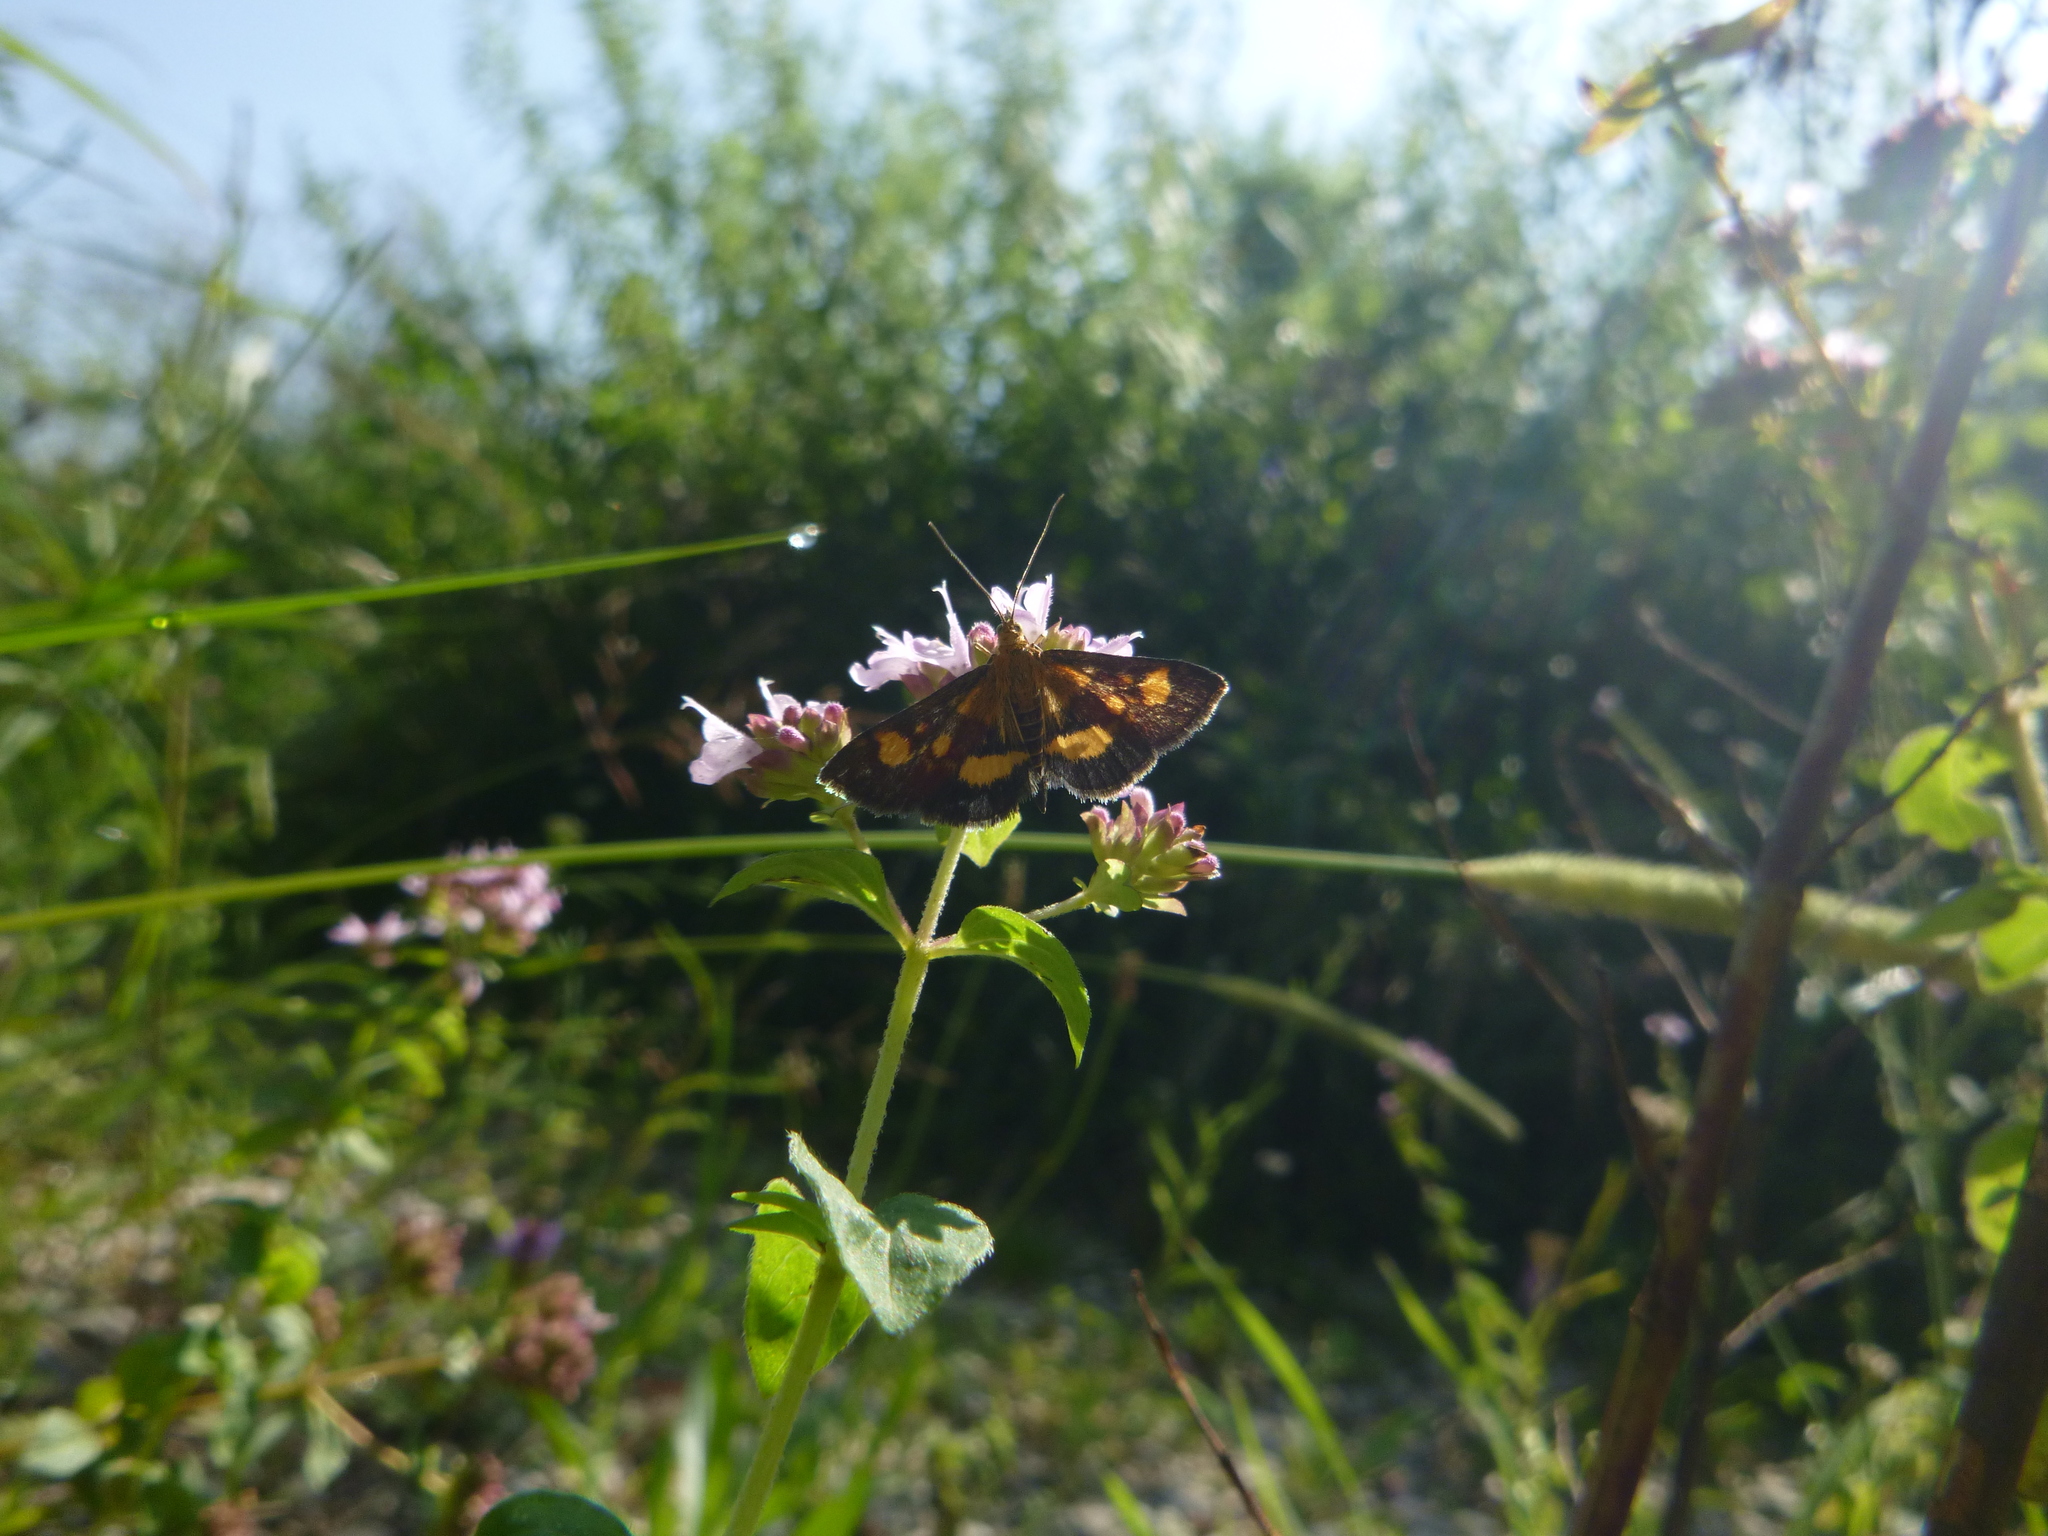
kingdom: Animalia
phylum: Arthropoda
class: Insecta
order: Lepidoptera
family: Crambidae
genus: Pyrausta
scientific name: Pyrausta aurata
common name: Small purple & gold
